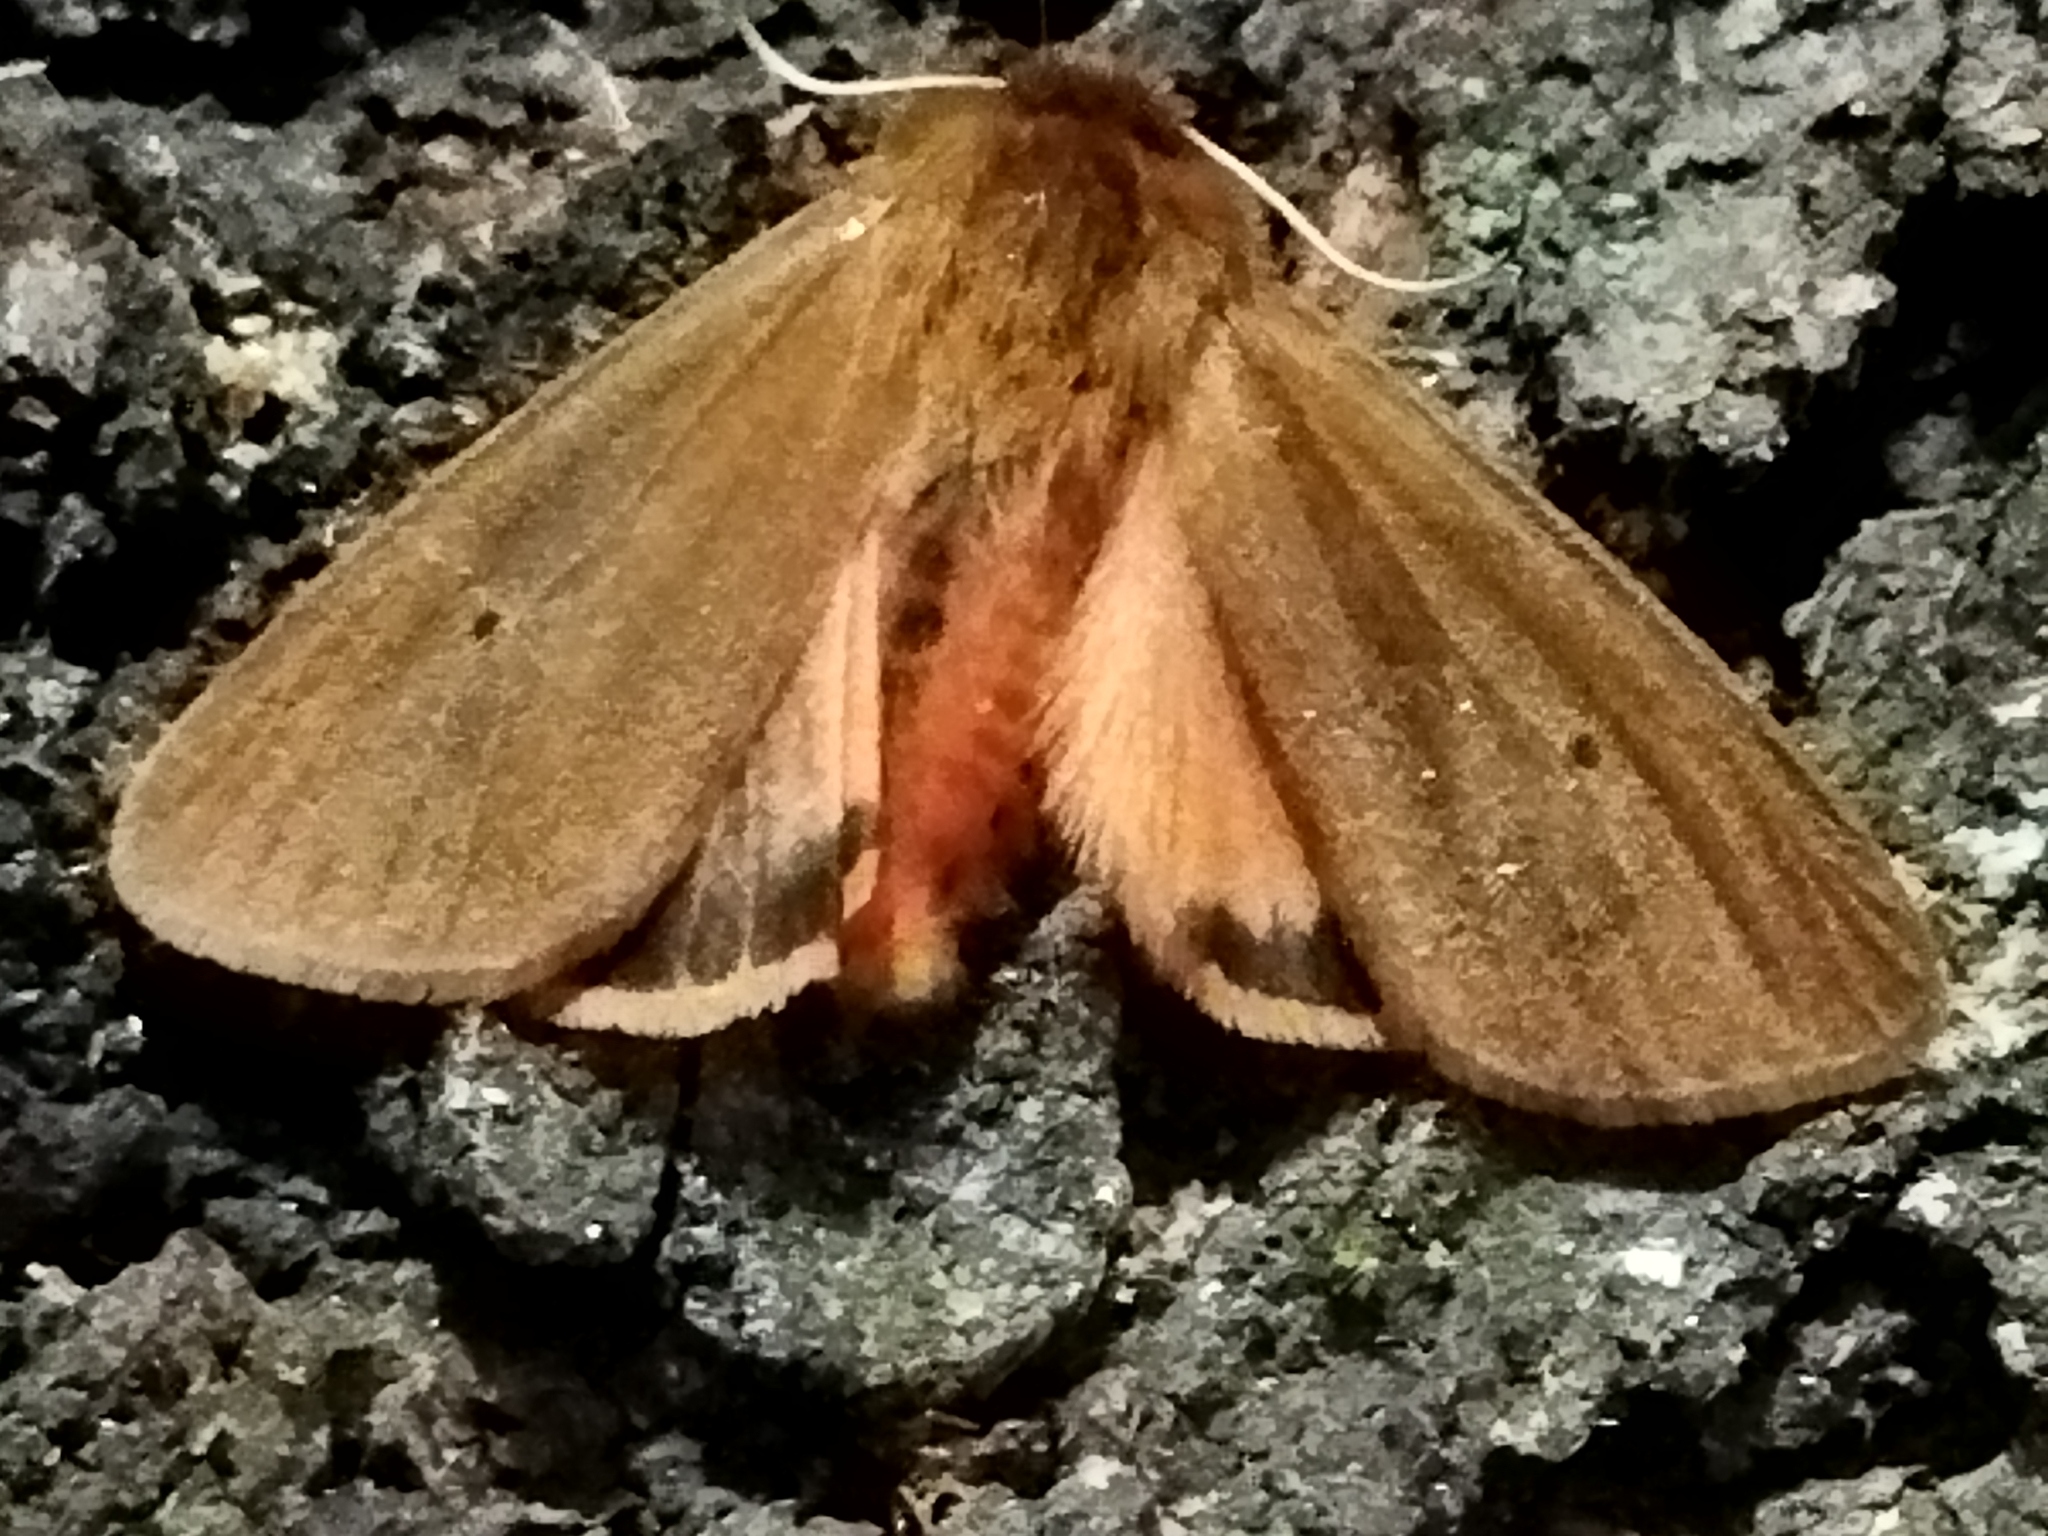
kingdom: Animalia
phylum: Arthropoda
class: Insecta
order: Lepidoptera
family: Erebidae
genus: Phragmatobia
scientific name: Phragmatobia fuliginosa
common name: Ruby tiger
